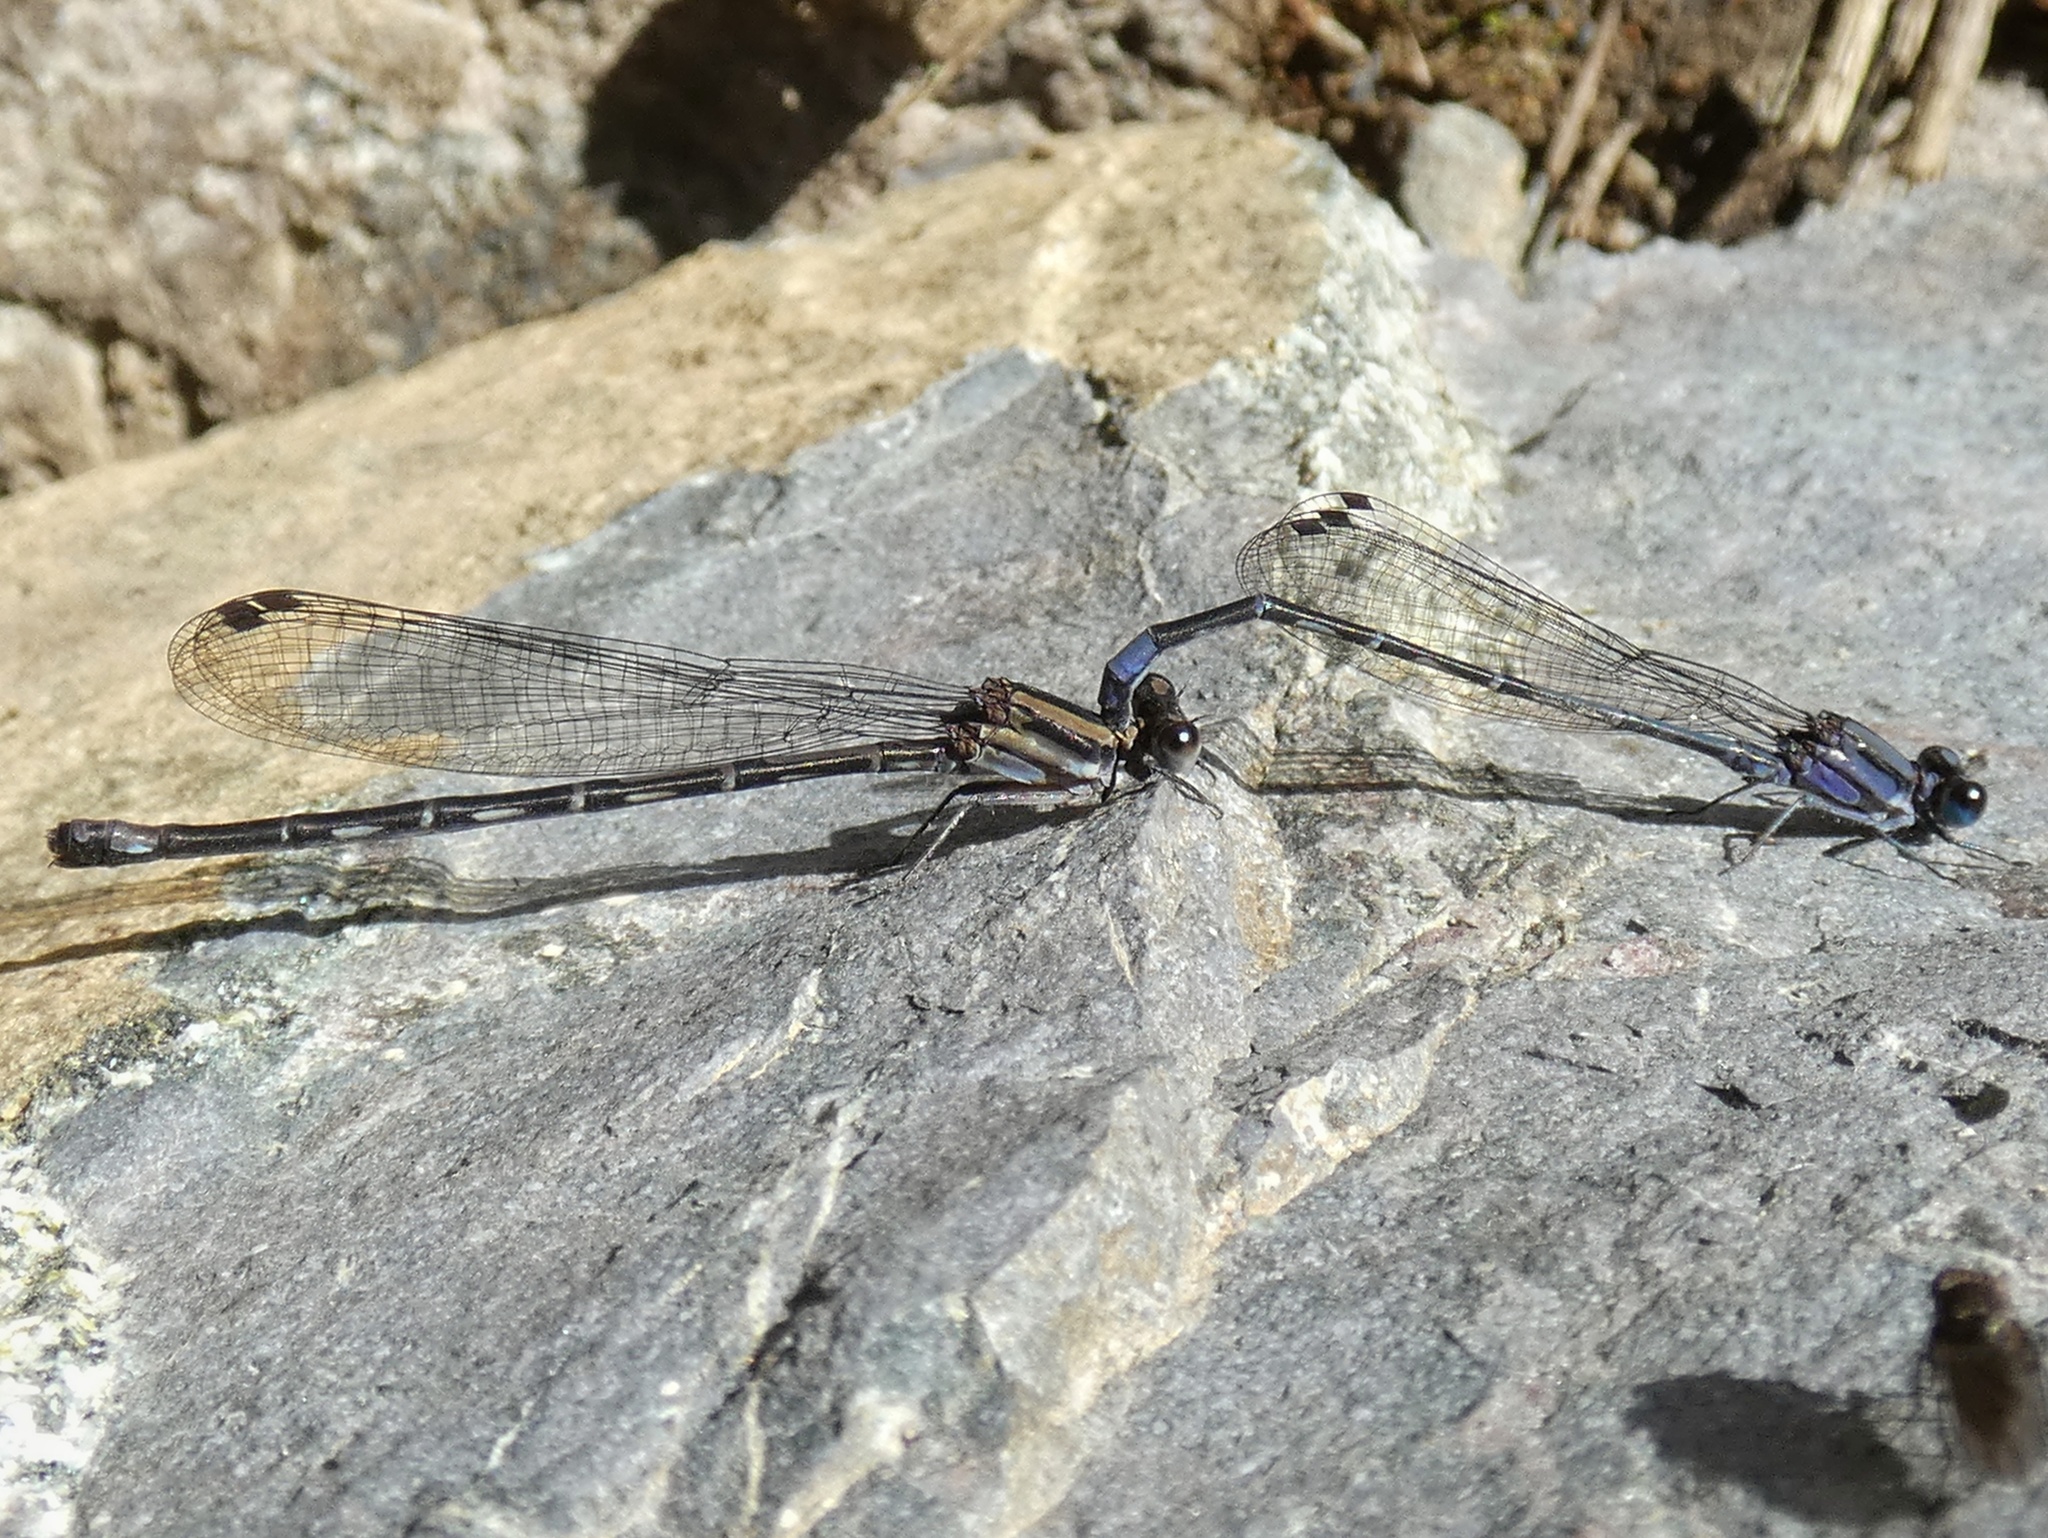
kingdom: Animalia
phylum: Arthropoda
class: Insecta
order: Odonata
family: Coenagrionidae
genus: Argia
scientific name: Argia pocomana
